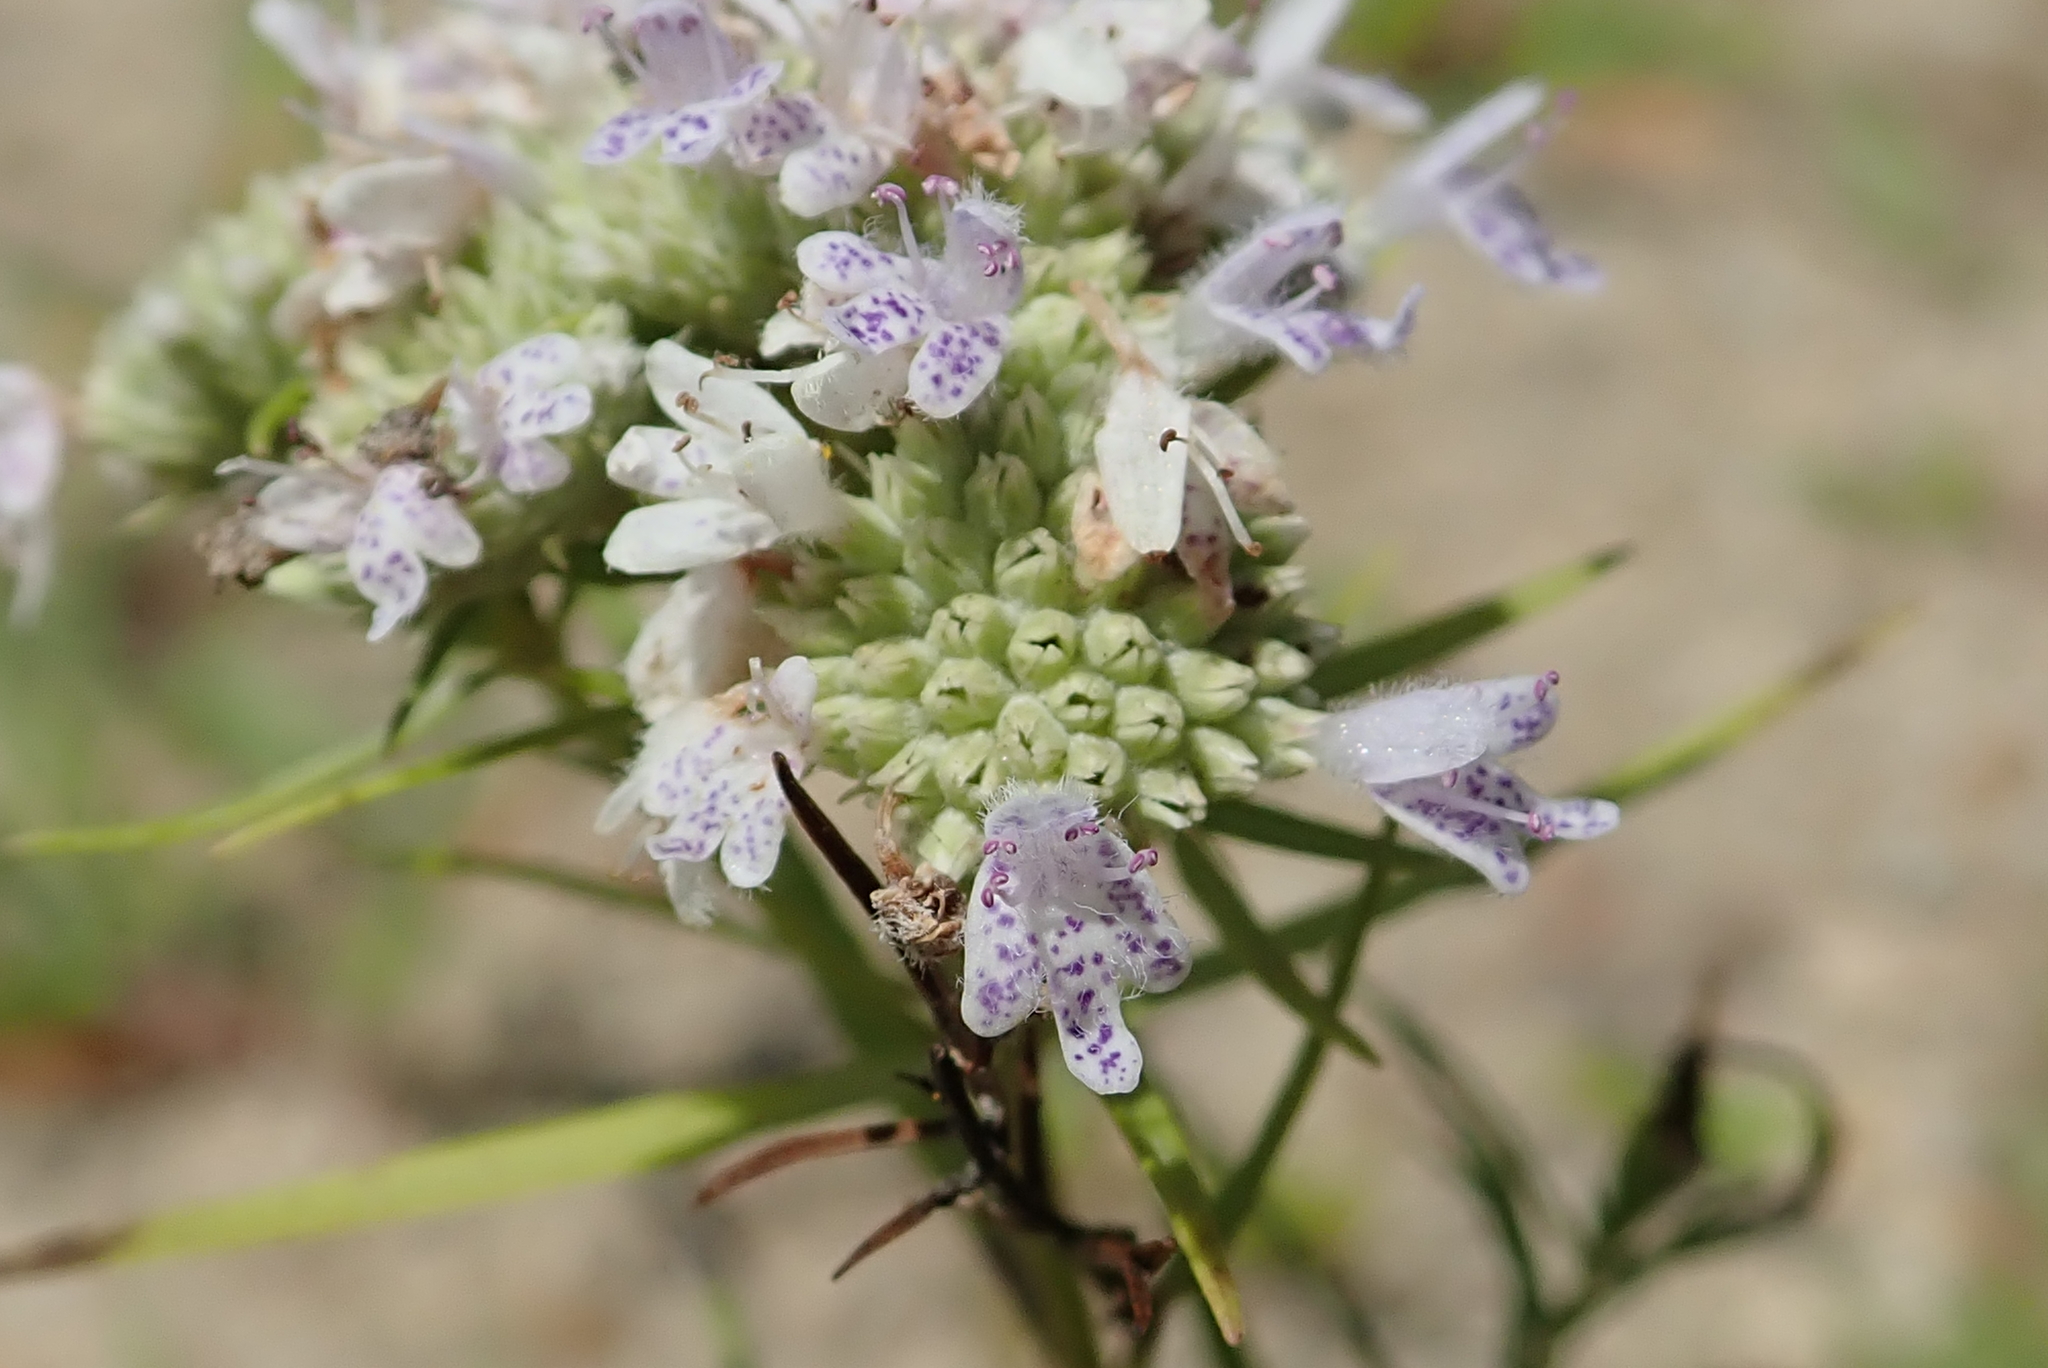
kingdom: Plantae
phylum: Tracheophyta
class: Magnoliopsida
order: Lamiales
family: Lamiaceae
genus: Pycnanthemum
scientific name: Pycnanthemum tenuifolium
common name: Narrow-leaf mountain-mint
